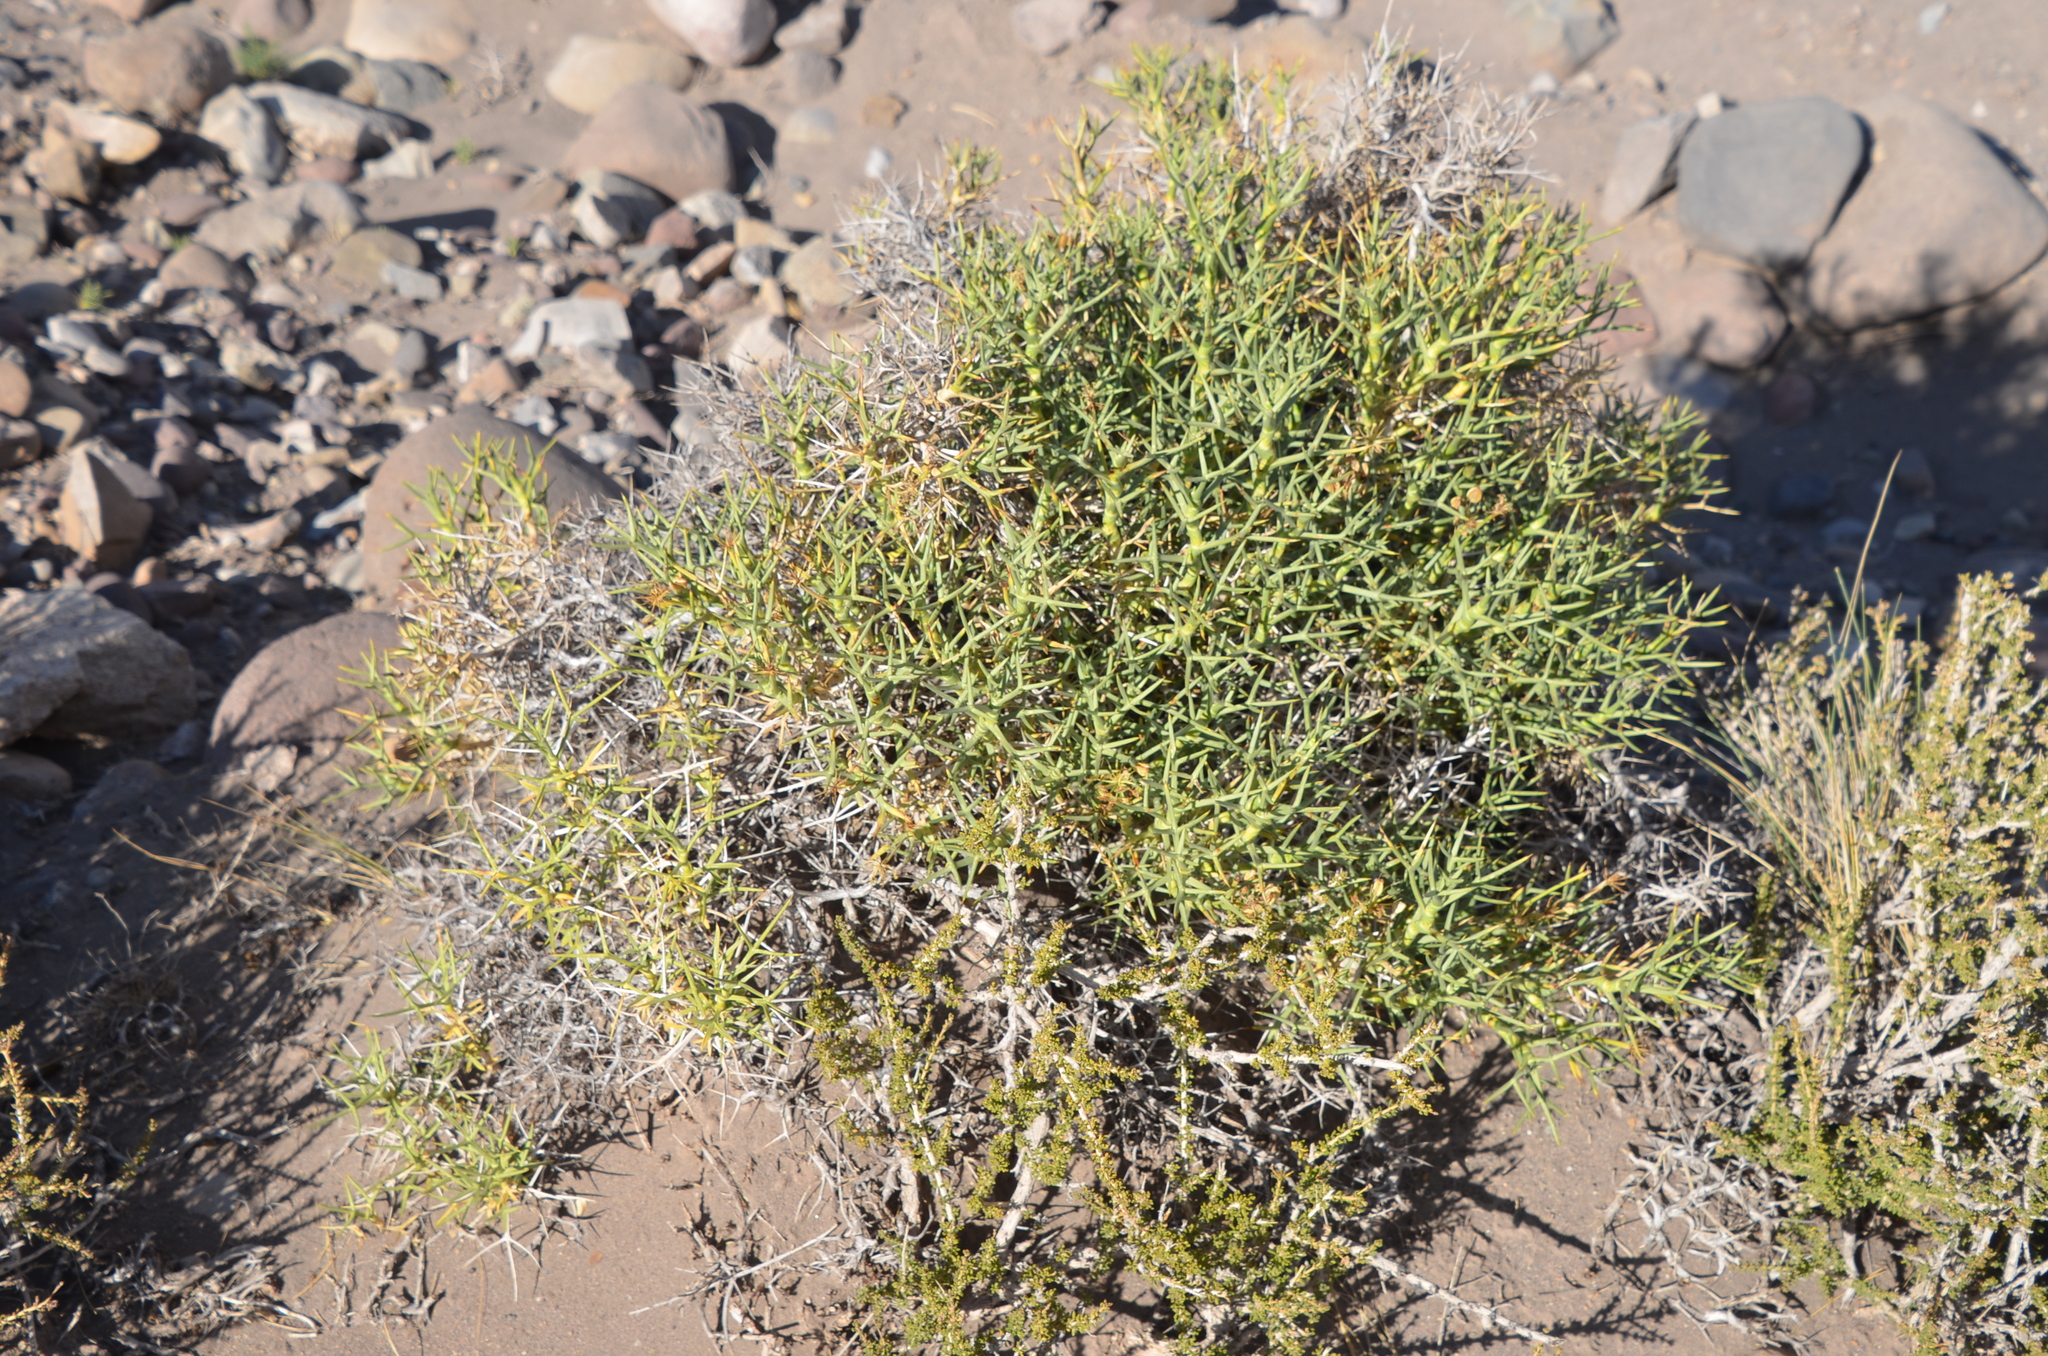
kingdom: Plantae
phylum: Tracheophyta
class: Magnoliopsida
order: Apiales
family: Apiaceae
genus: Azorella
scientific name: Azorella prolifera
